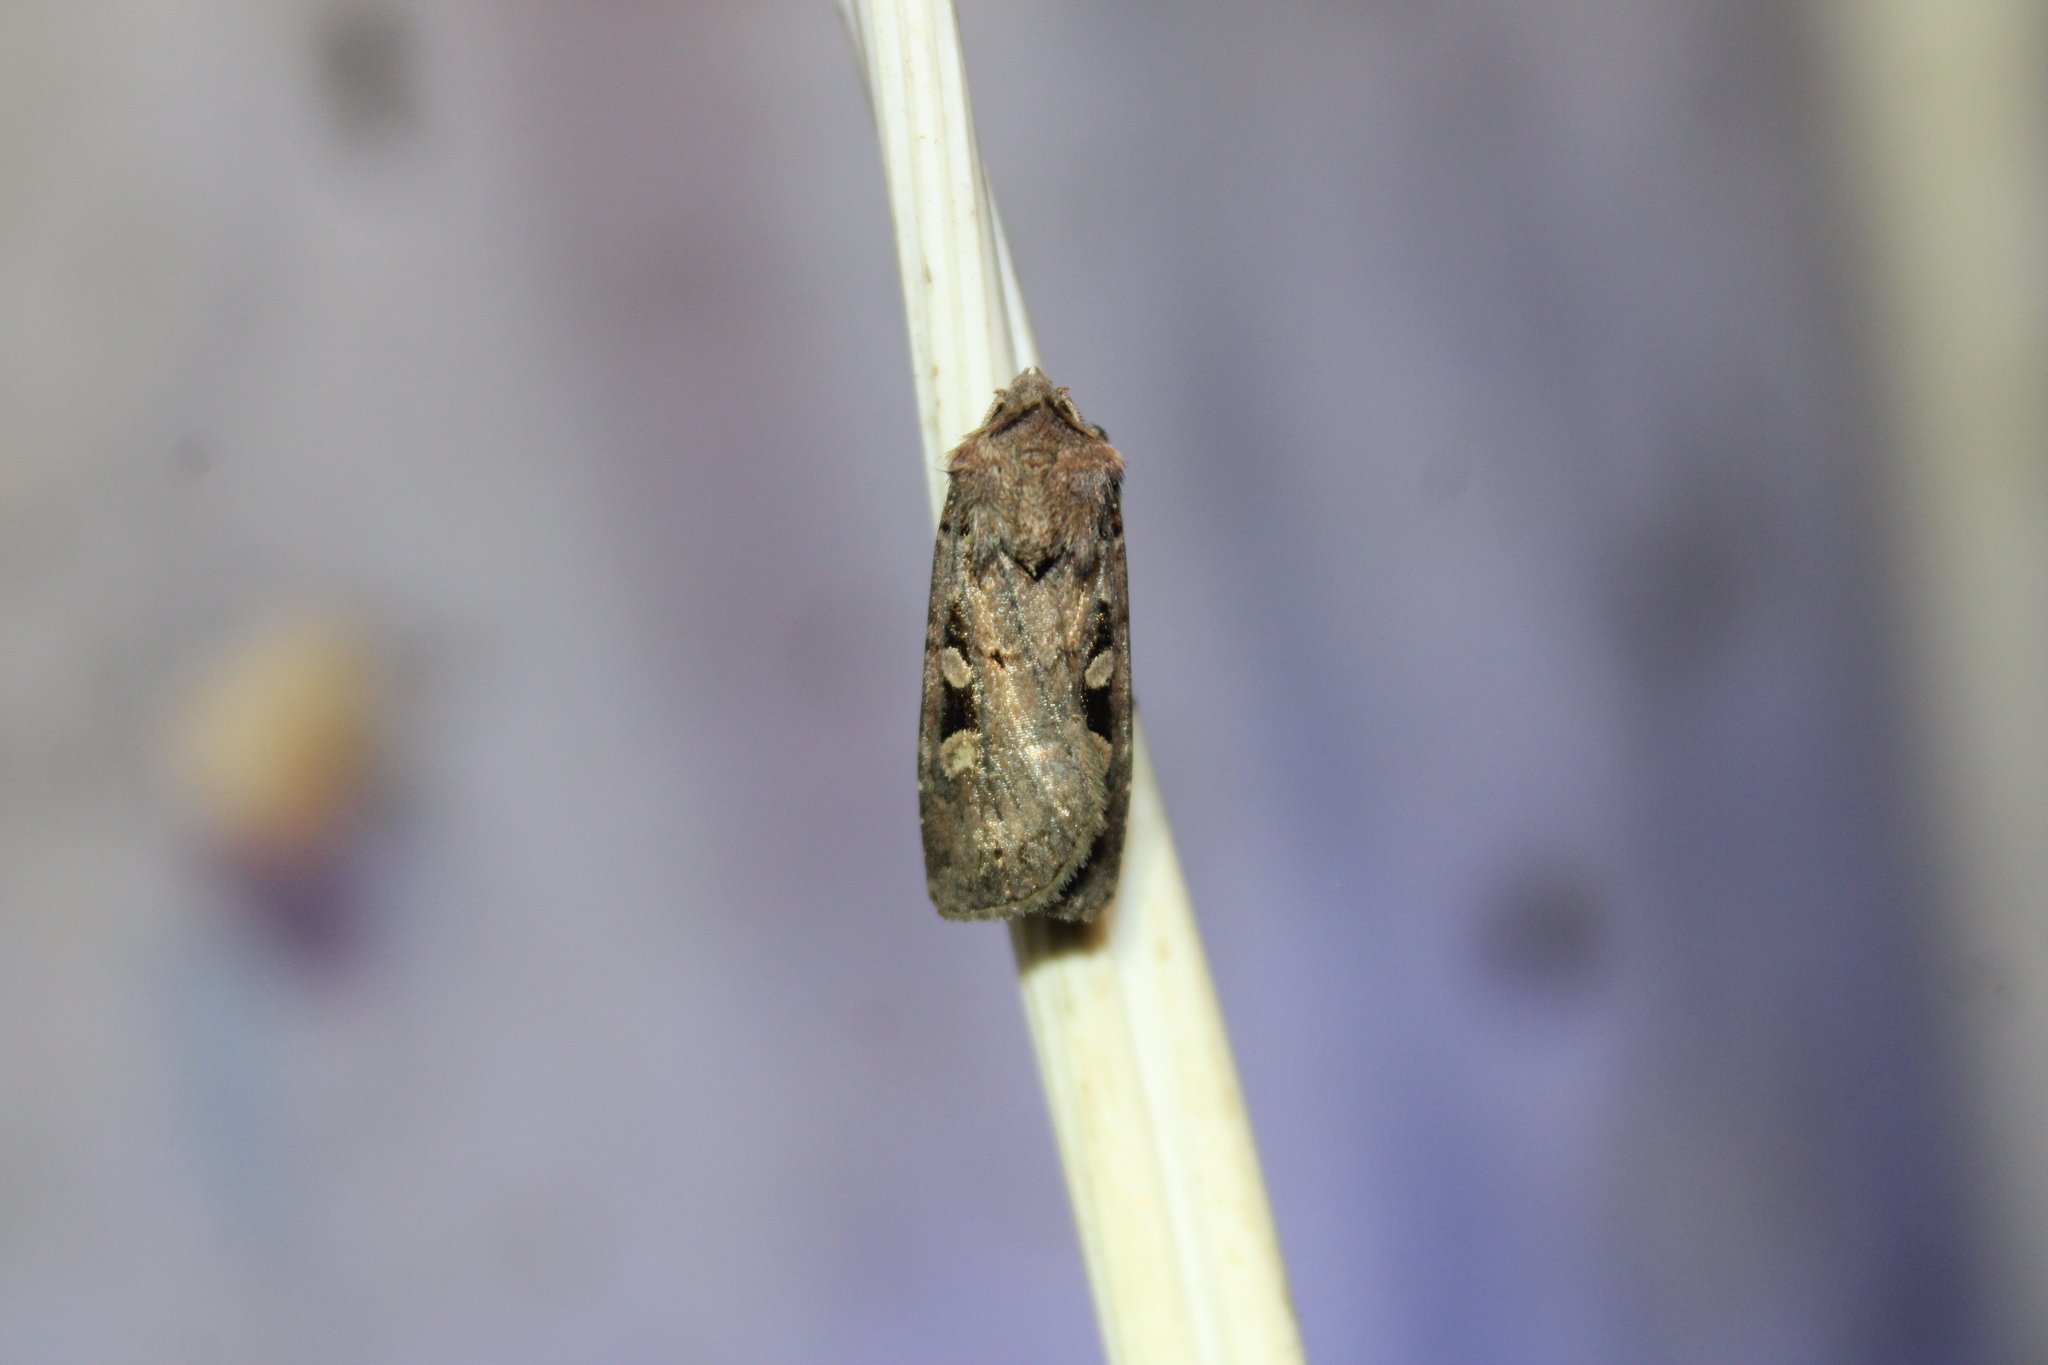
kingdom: Animalia
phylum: Arthropoda
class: Insecta
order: Lepidoptera
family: Noctuidae
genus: Euxoa
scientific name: Euxoa tessellata
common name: Striped cutworm
